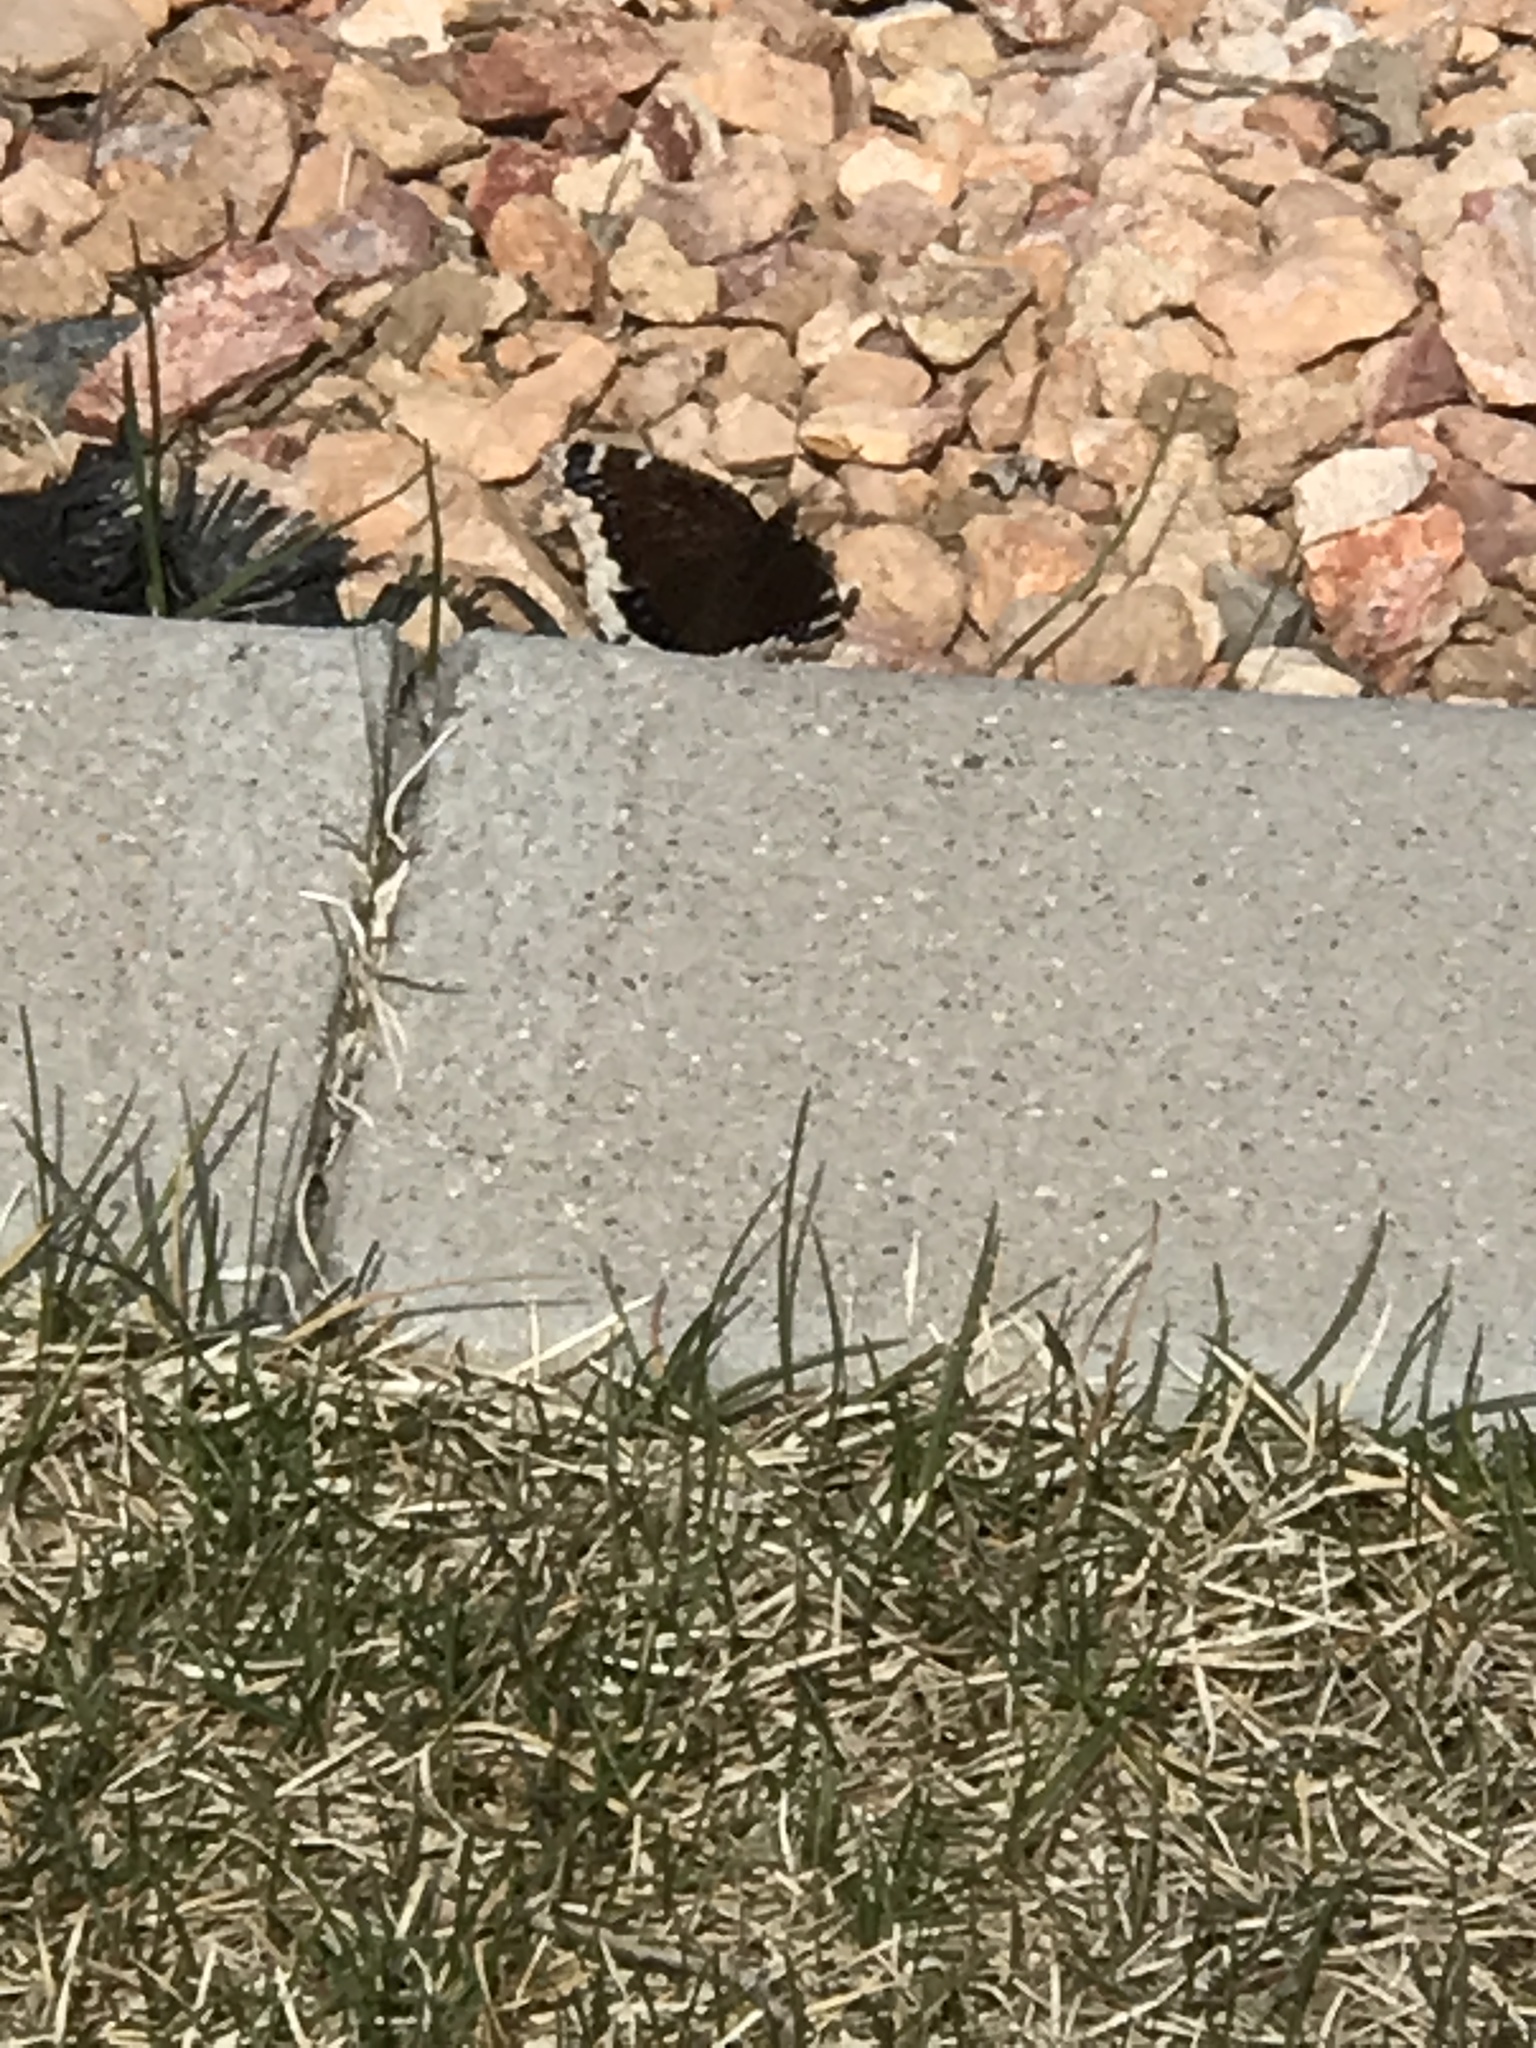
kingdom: Animalia
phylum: Arthropoda
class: Insecta
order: Lepidoptera
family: Nymphalidae
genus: Nymphalis
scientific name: Nymphalis antiopa
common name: Camberwell beauty
